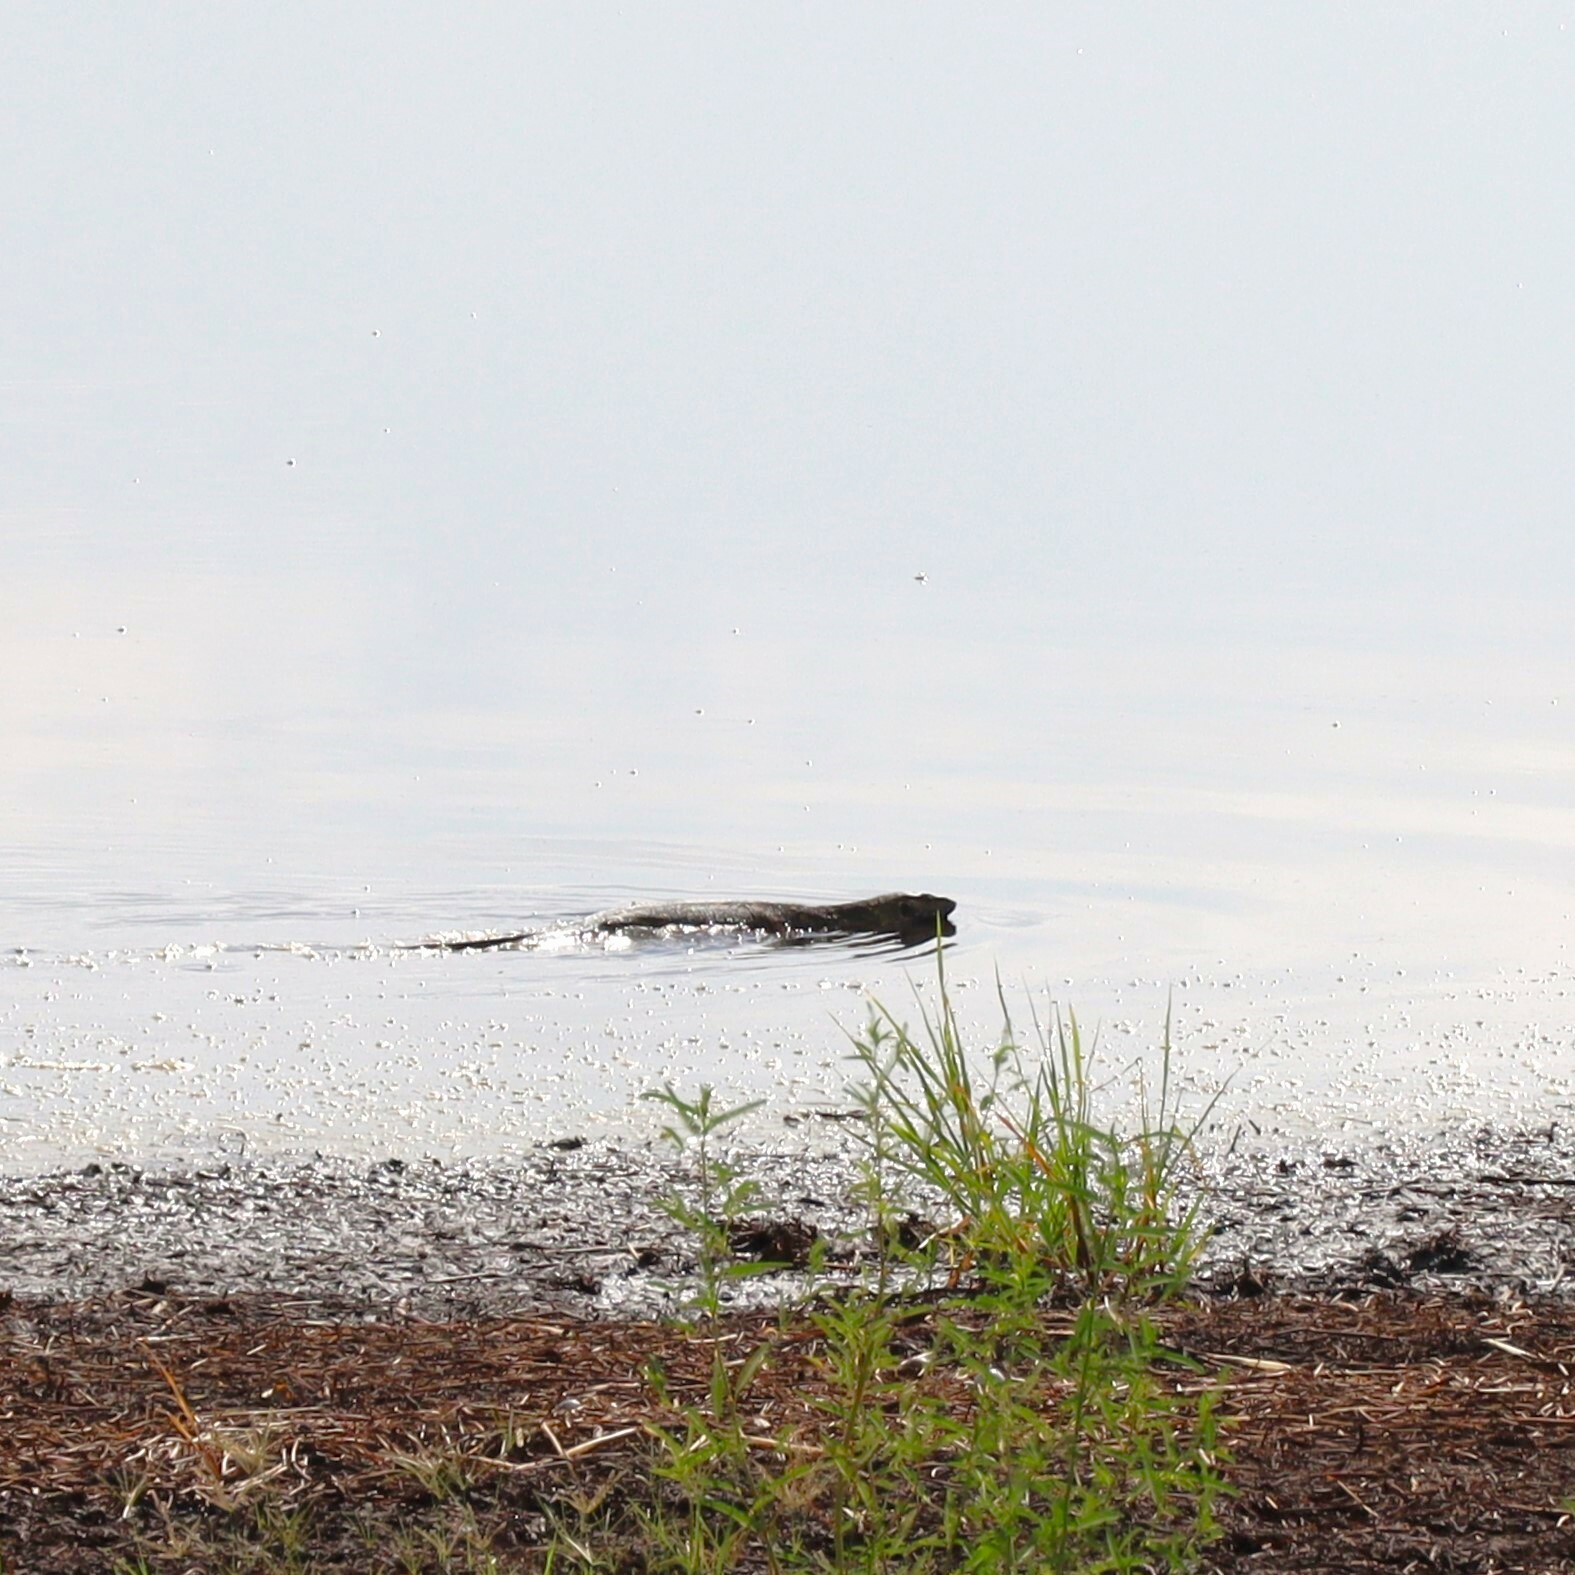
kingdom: Animalia
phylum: Chordata
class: Squamata
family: Varanidae
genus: Varanus
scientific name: Varanus niloticus
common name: Nile monitor
